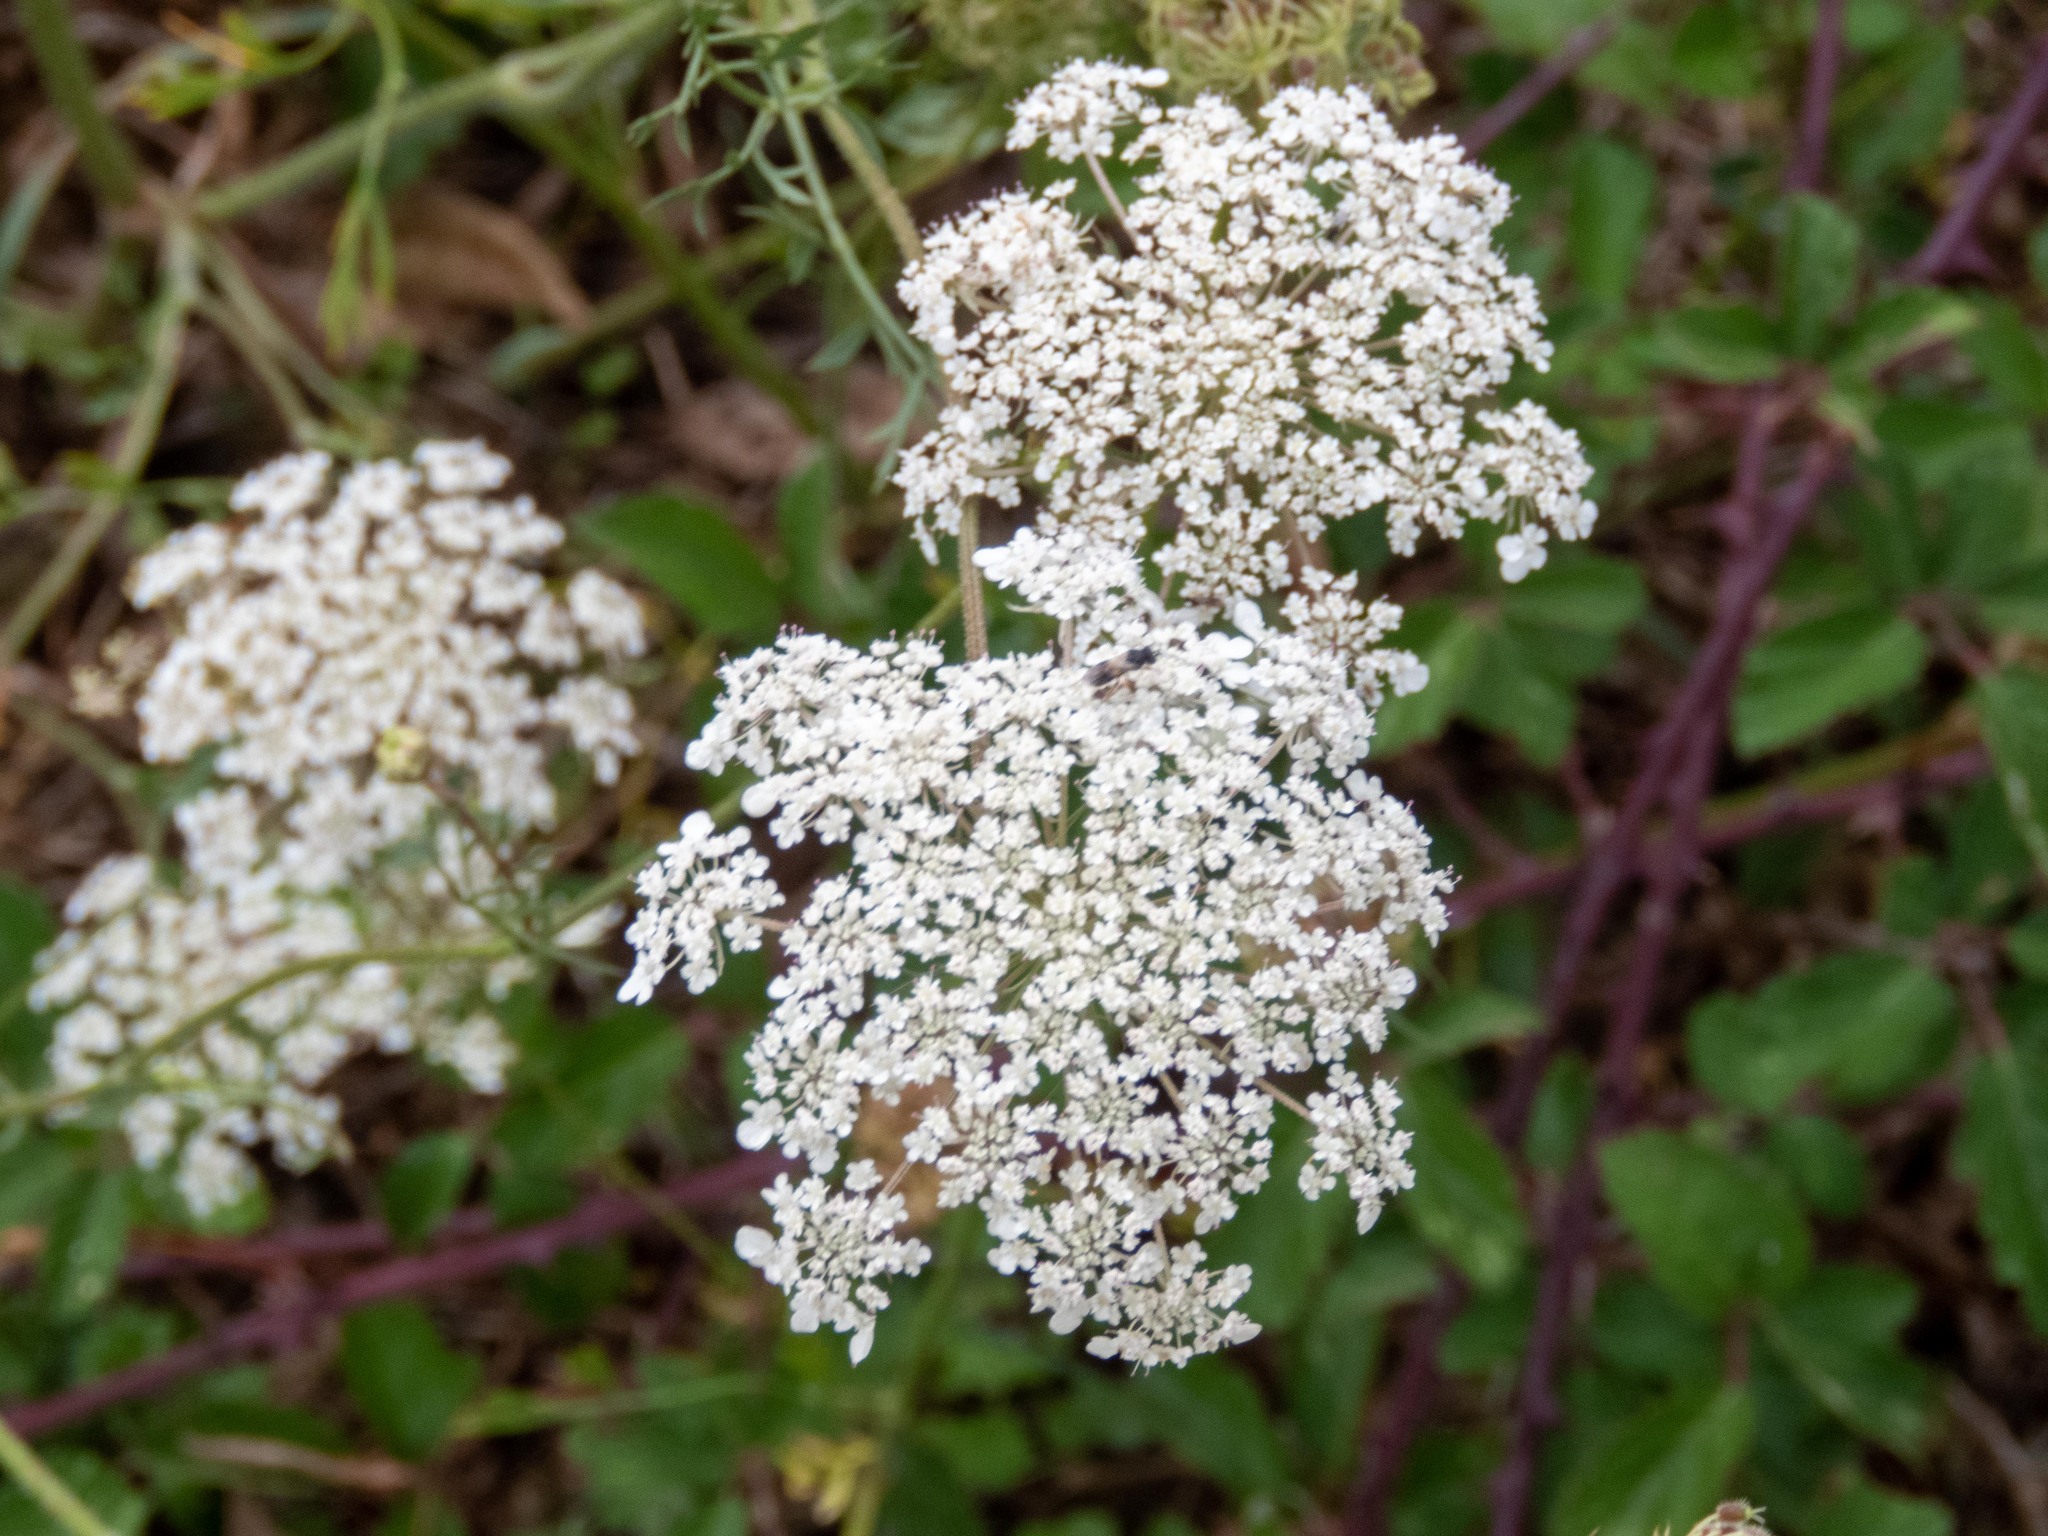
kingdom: Plantae
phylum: Tracheophyta
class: Magnoliopsida
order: Apiales
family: Apiaceae
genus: Daucus
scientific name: Daucus carota
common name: Wild carrot
